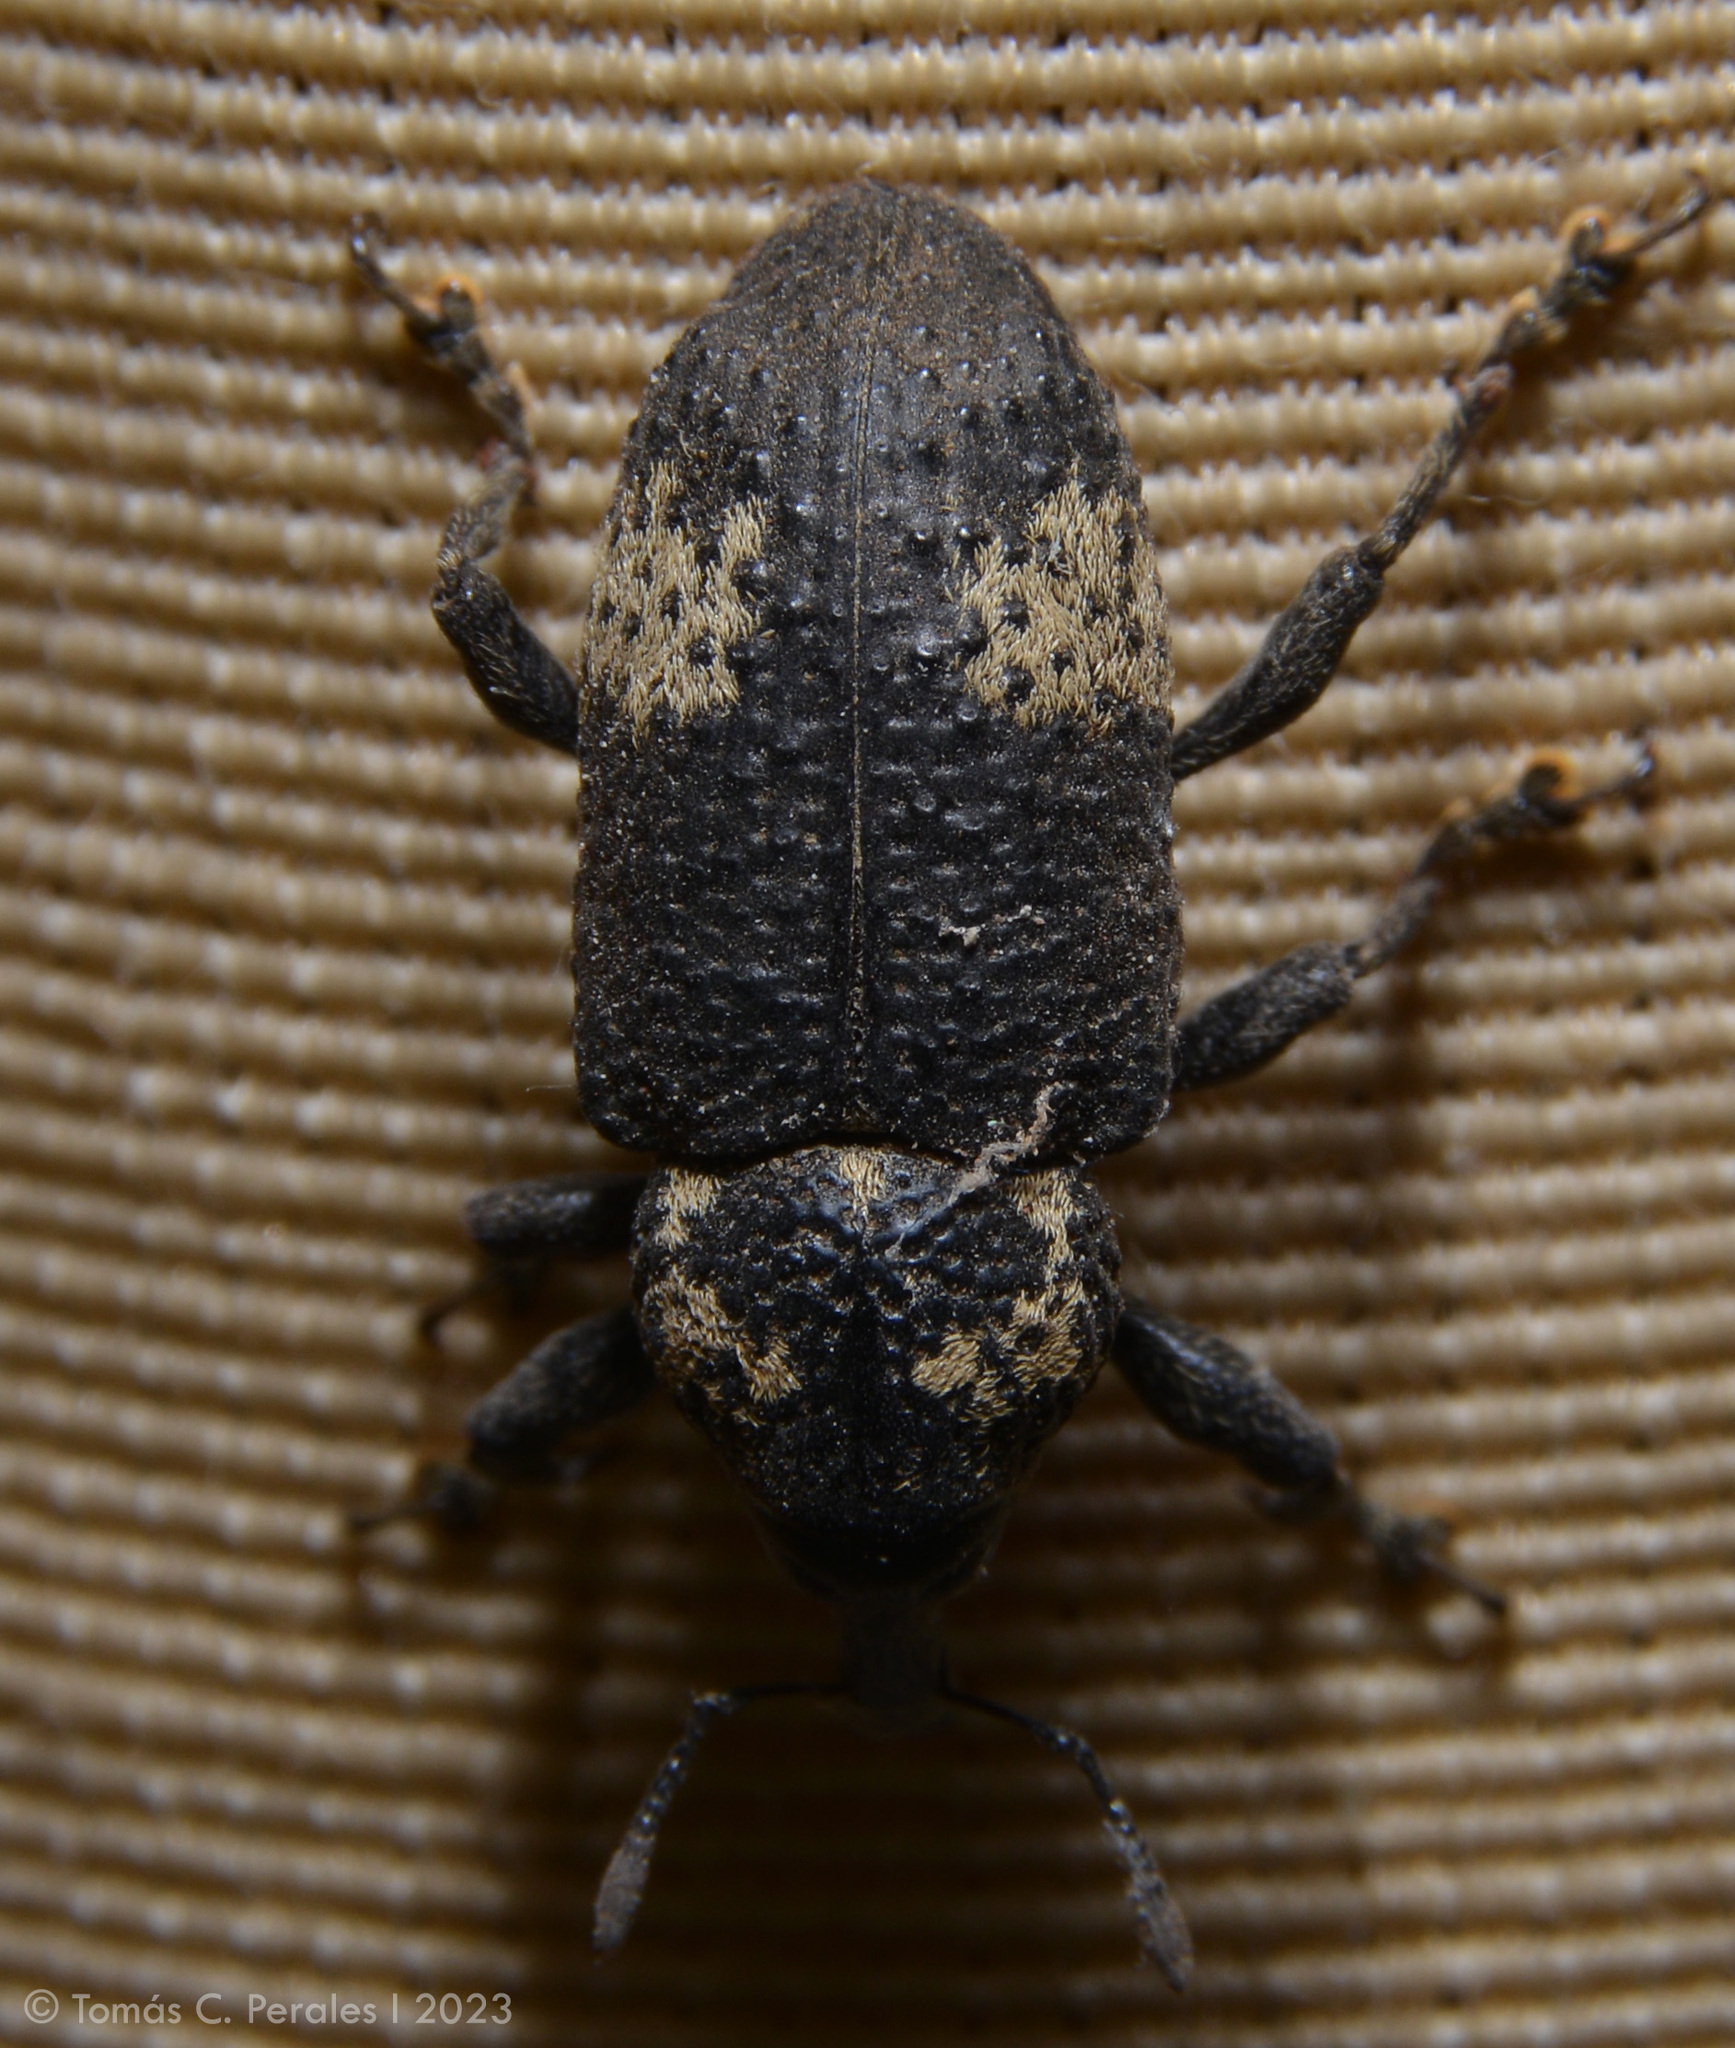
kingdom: Animalia
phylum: Arthropoda
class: Insecta
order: Coleoptera
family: Curculionidae
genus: Heilipus
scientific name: Heilipus deletangi
